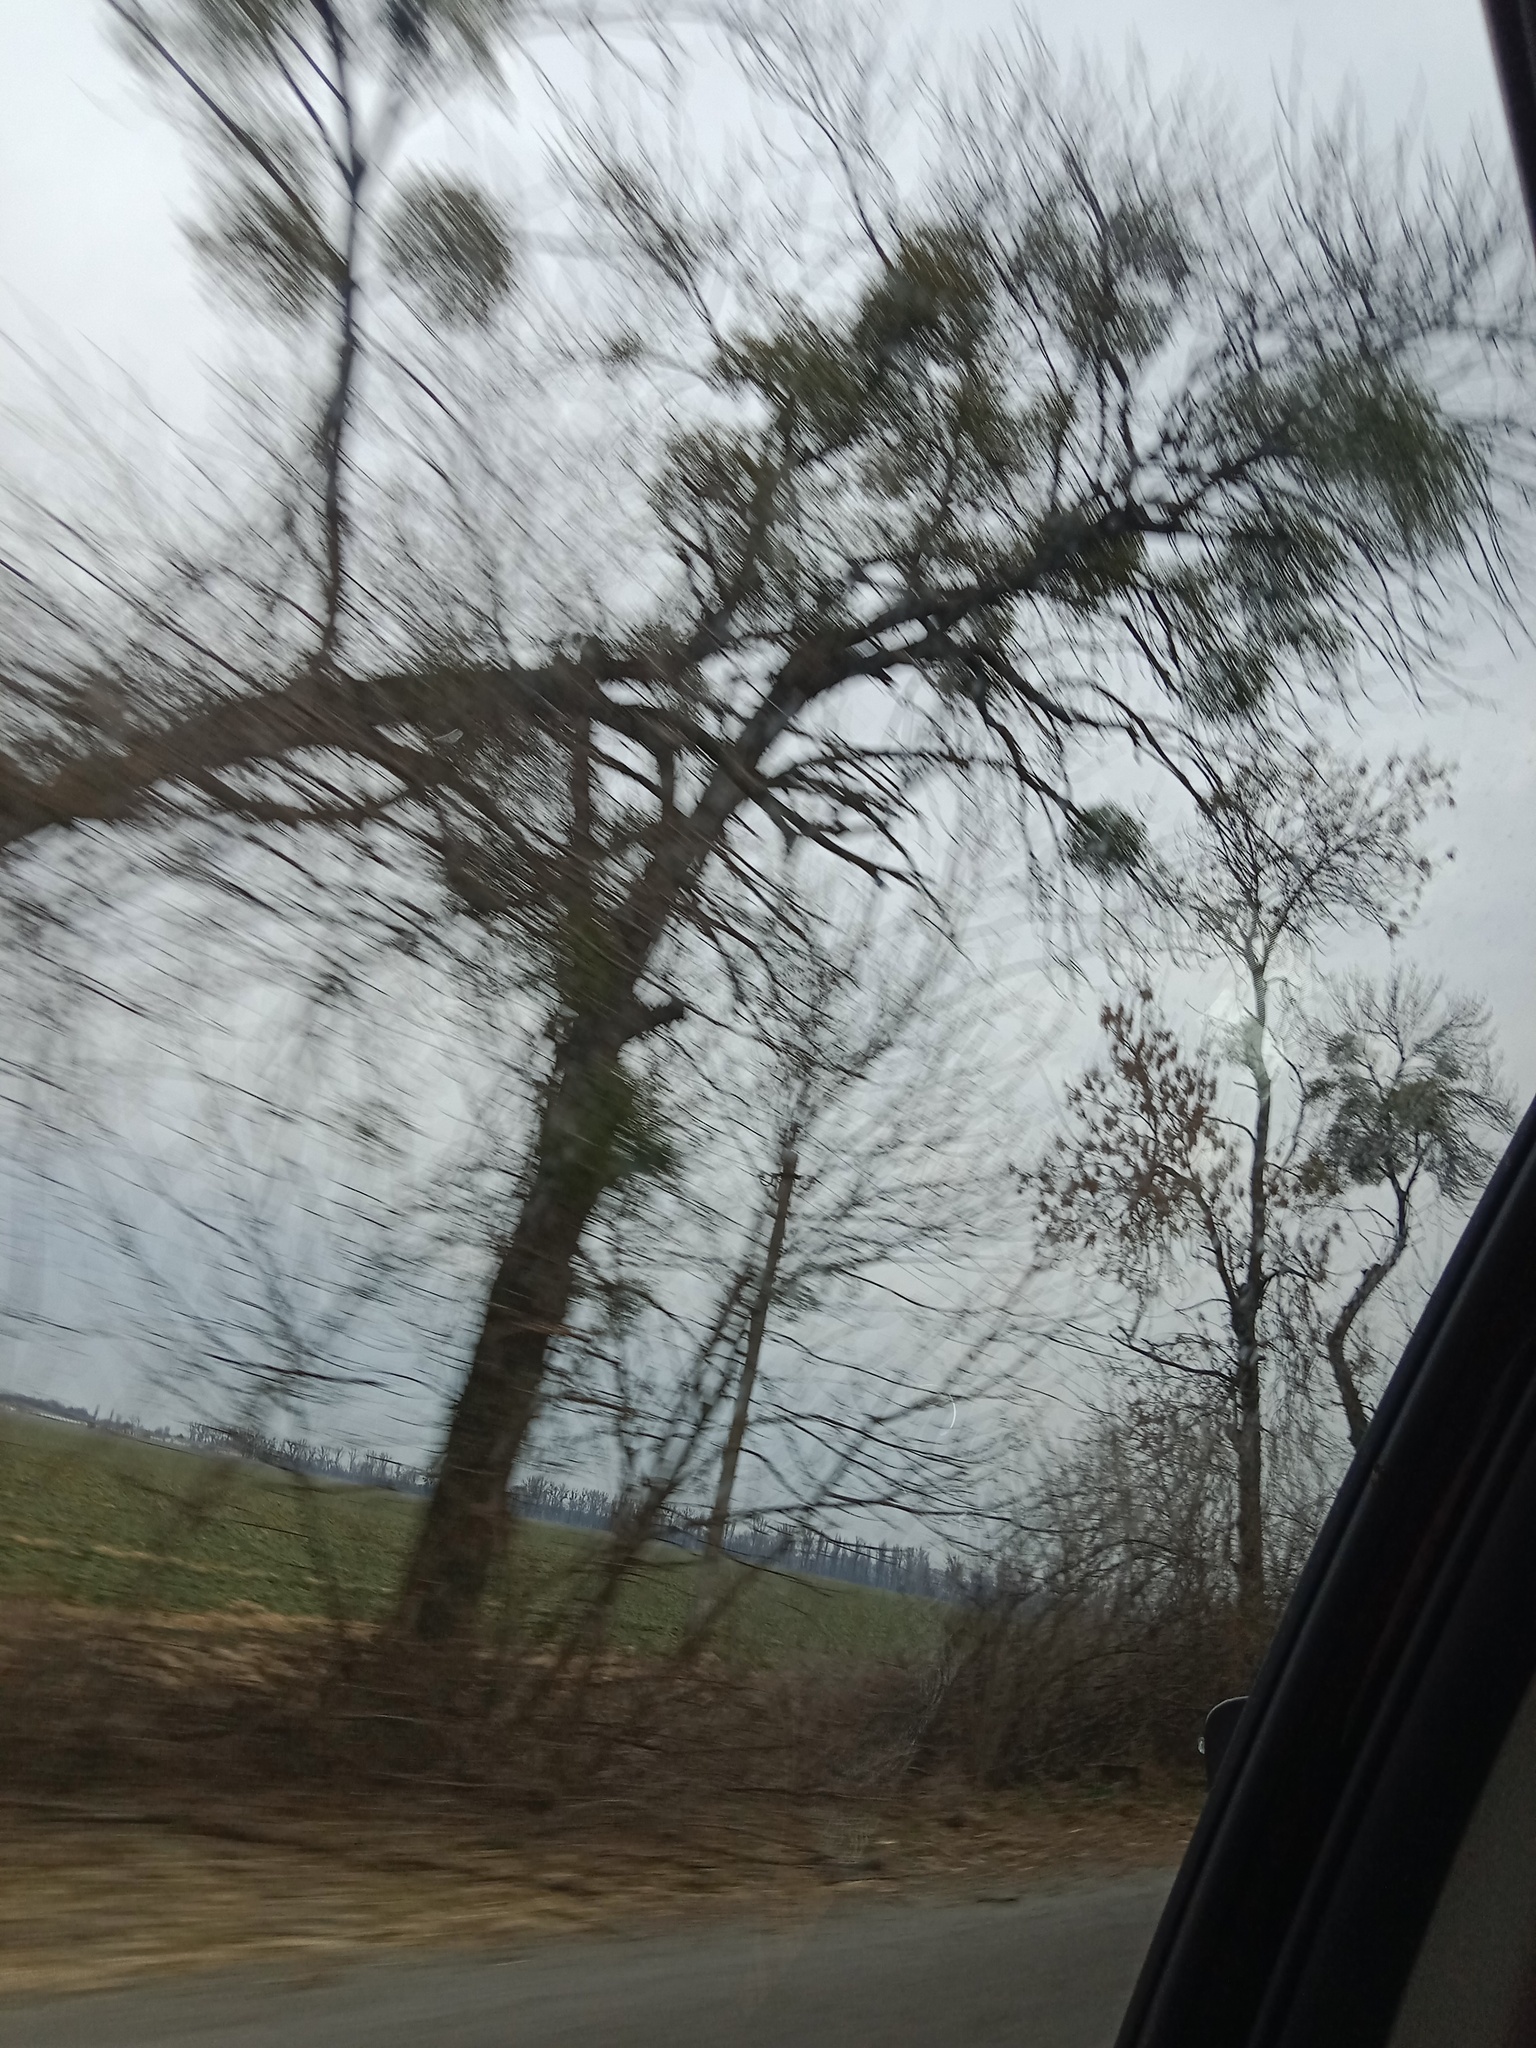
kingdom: Plantae
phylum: Tracheophyta
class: Magnoliopsida
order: Santalales
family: Viscaceae
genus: Viscum
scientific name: Viscum album
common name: Mistletoe
